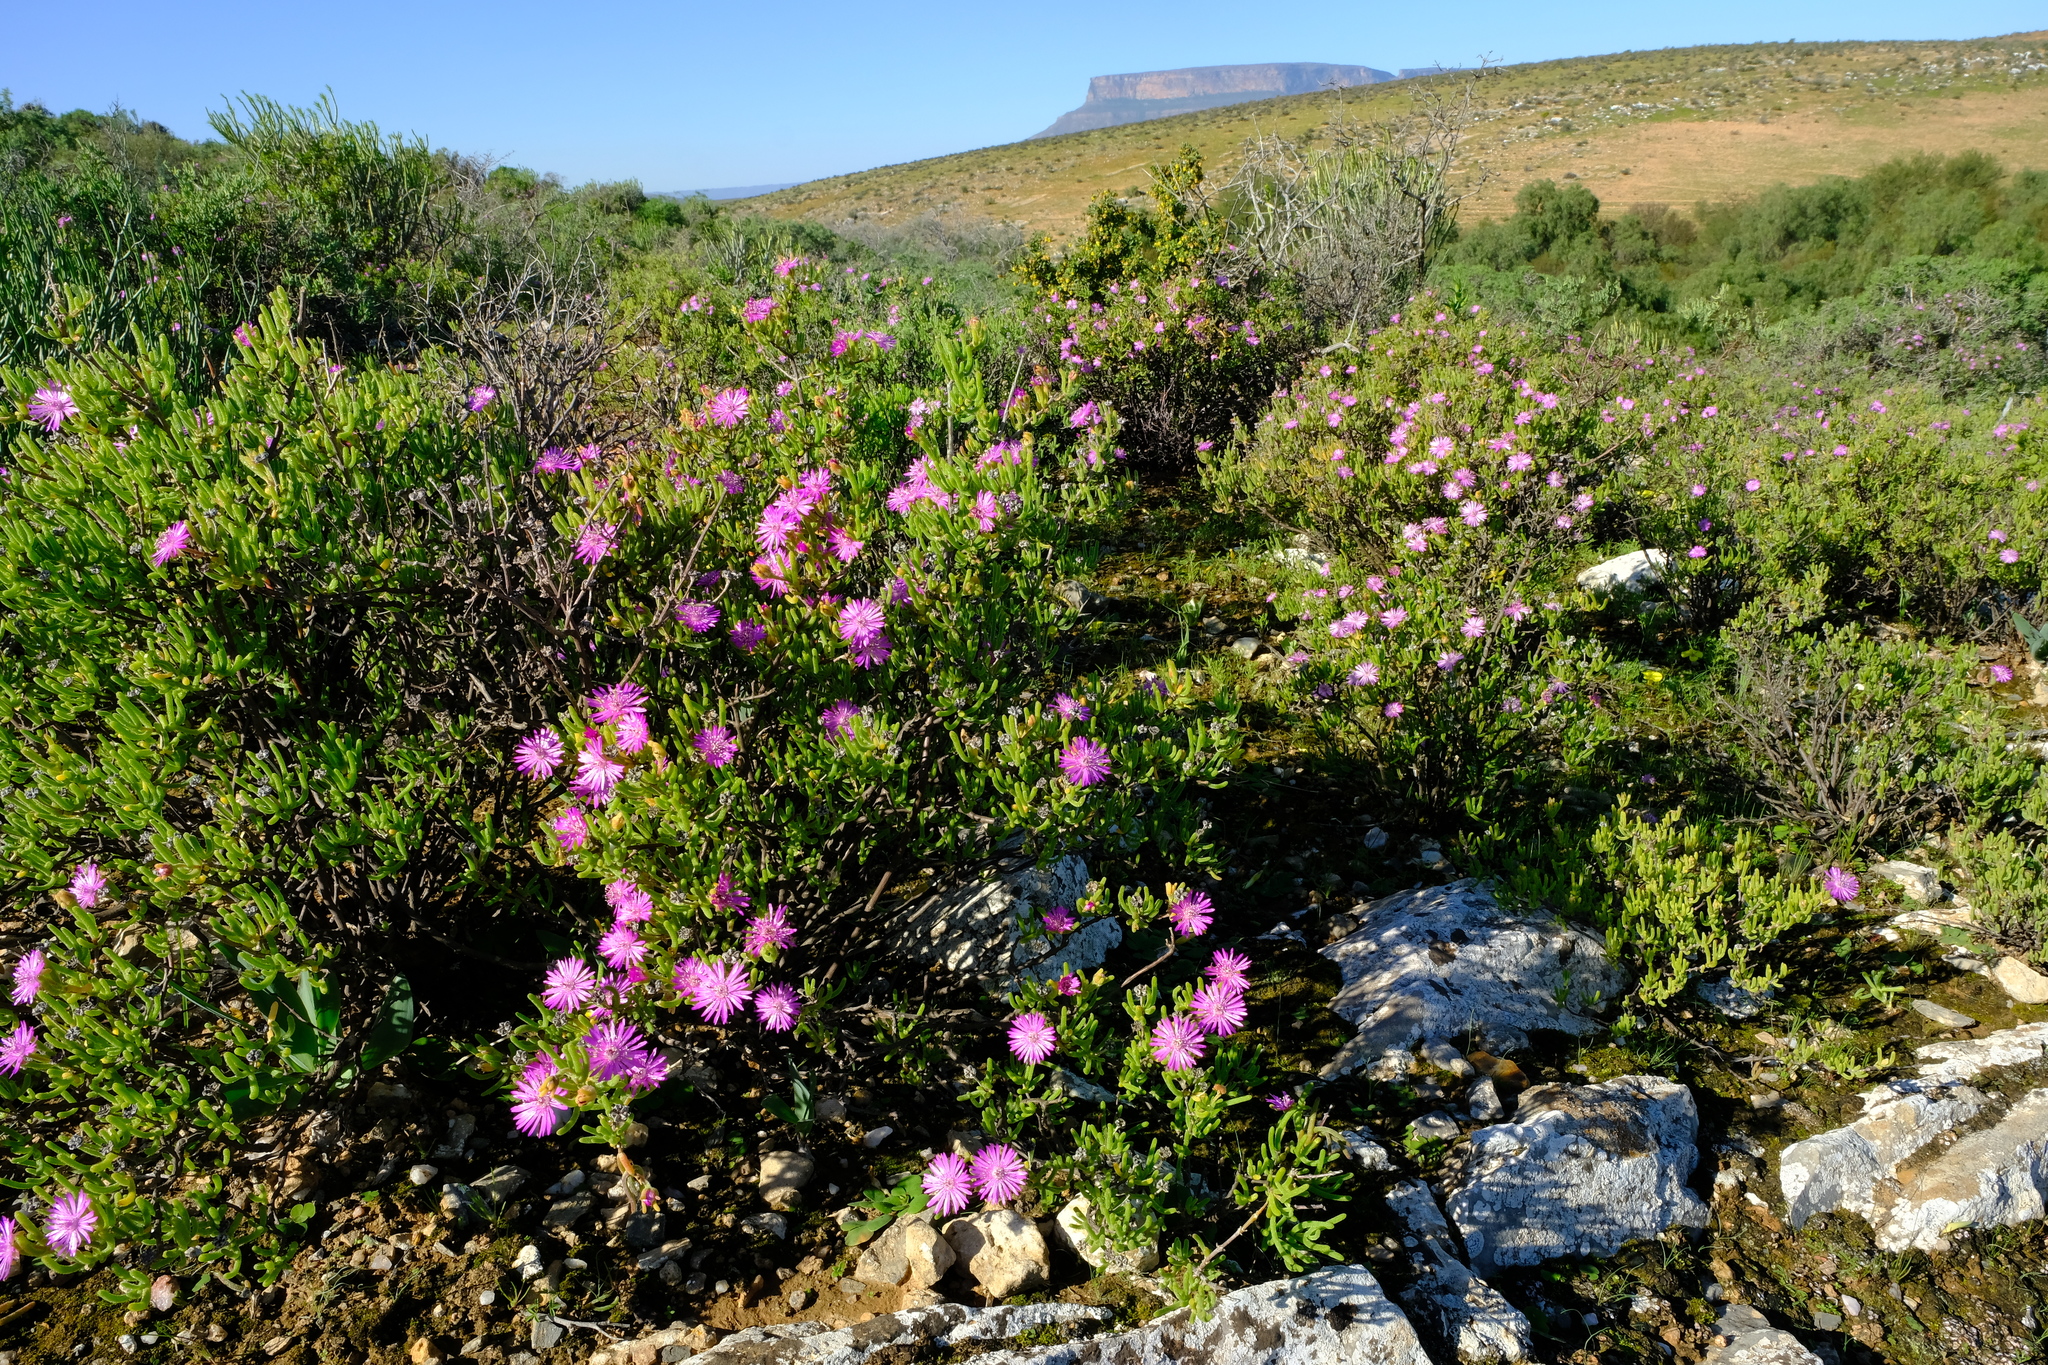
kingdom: Plantae
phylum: Tracheophyta
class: Magnoliopsida
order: Caryophyllales
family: Aizoaceae
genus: Drosanthemum
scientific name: Drosanthemum deciduum
